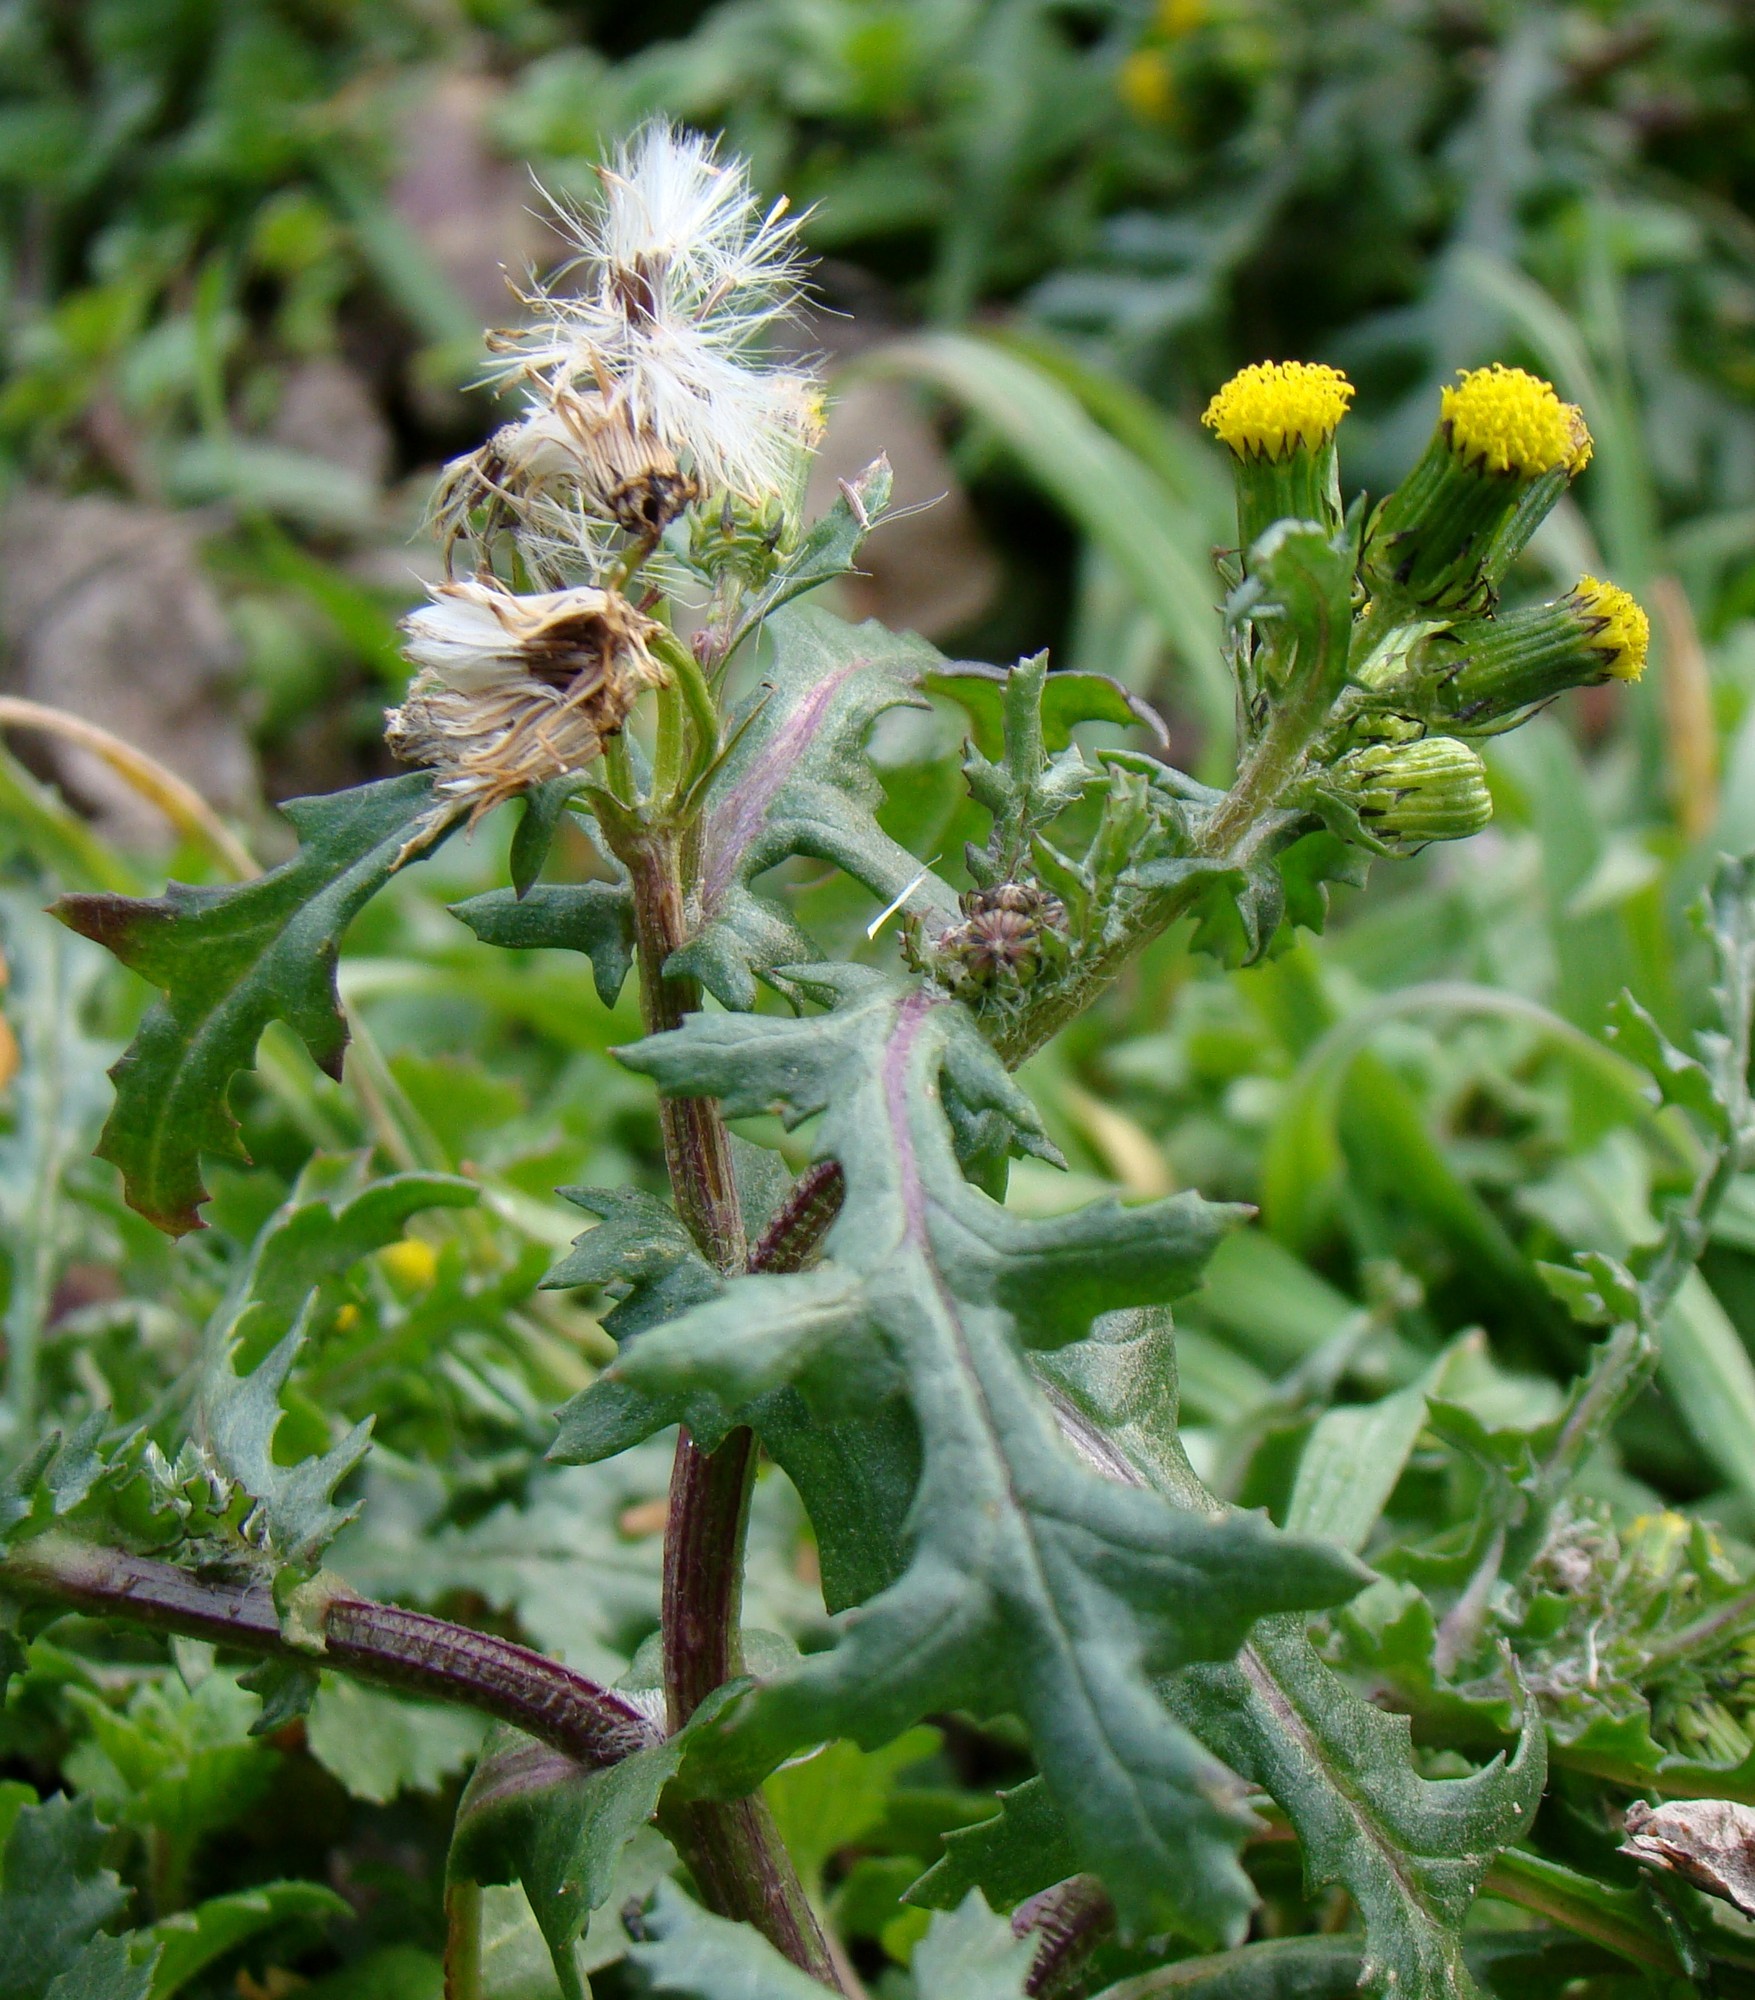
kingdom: Plantae
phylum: Tracheophyta
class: Magnoliopsida
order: Asterales
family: Asteraceae
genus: Senecio
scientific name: Senecio vulgaris
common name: Old-man-in-the-spring
